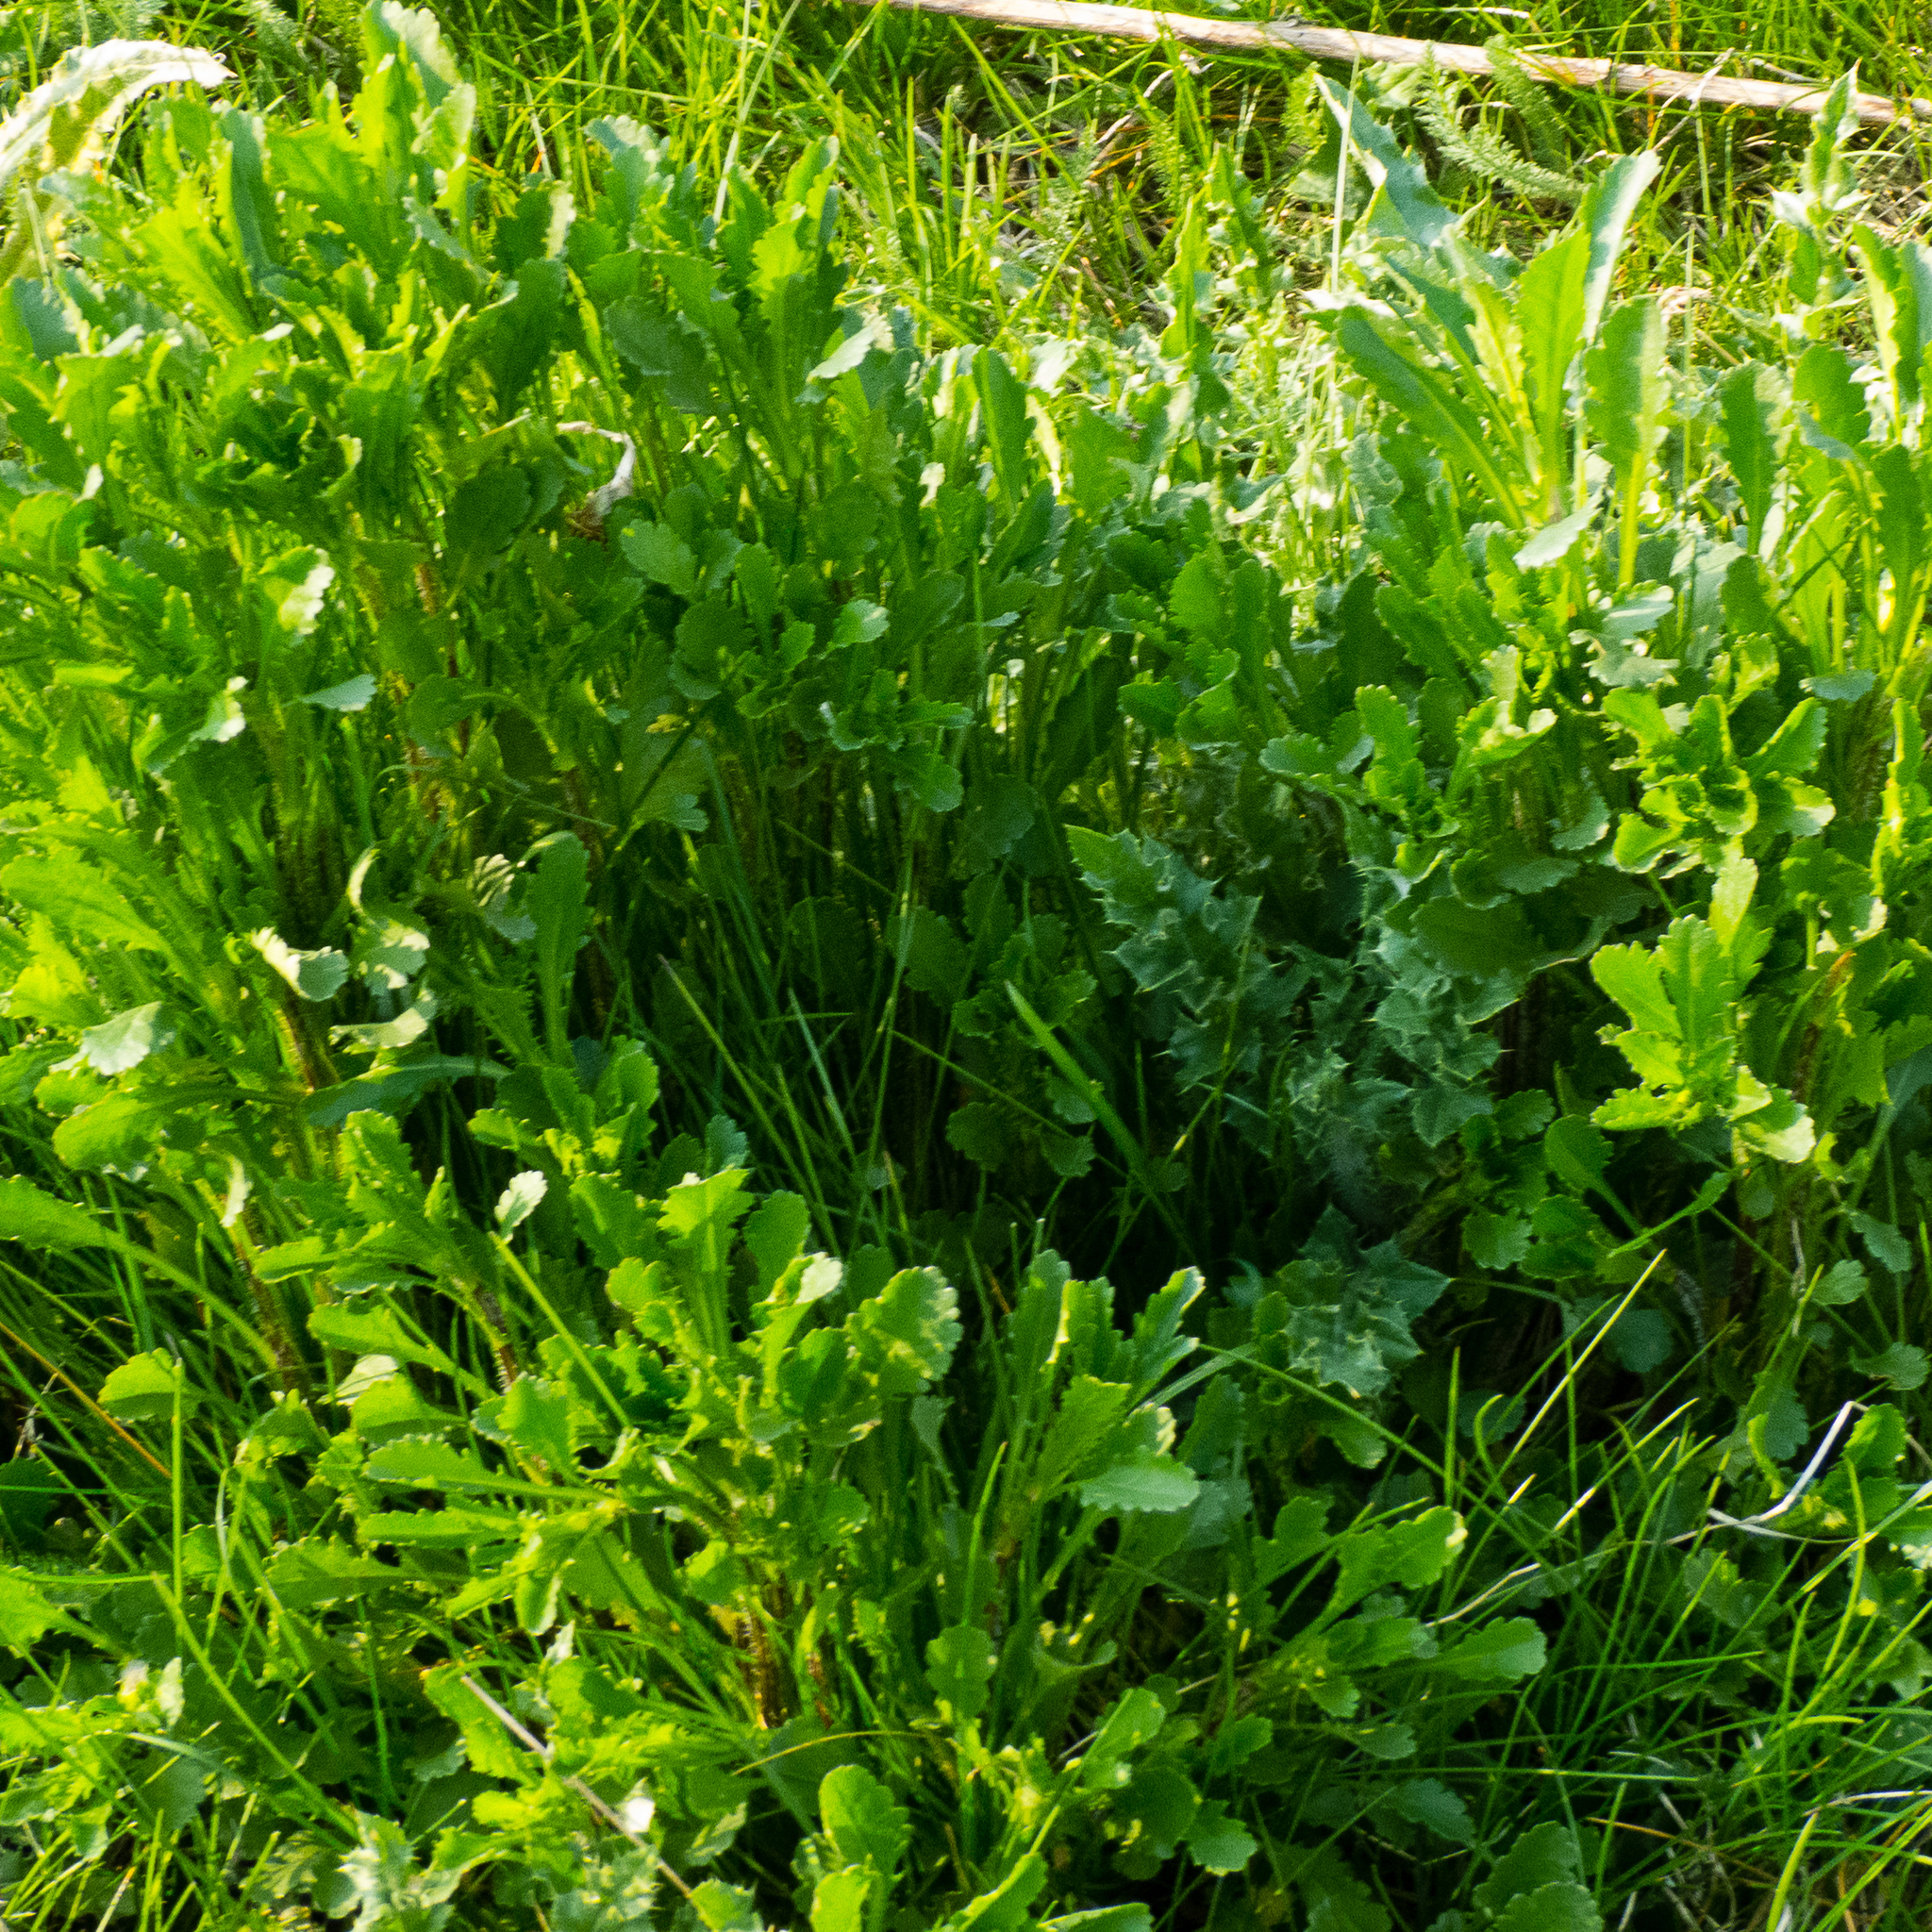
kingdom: Plantae
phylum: Tracheophyta
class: Magnoliopsida
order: Asterales
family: Asteraceae
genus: Leucanthemum
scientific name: Leucanthemum vulgare
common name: Oxeye daisy
